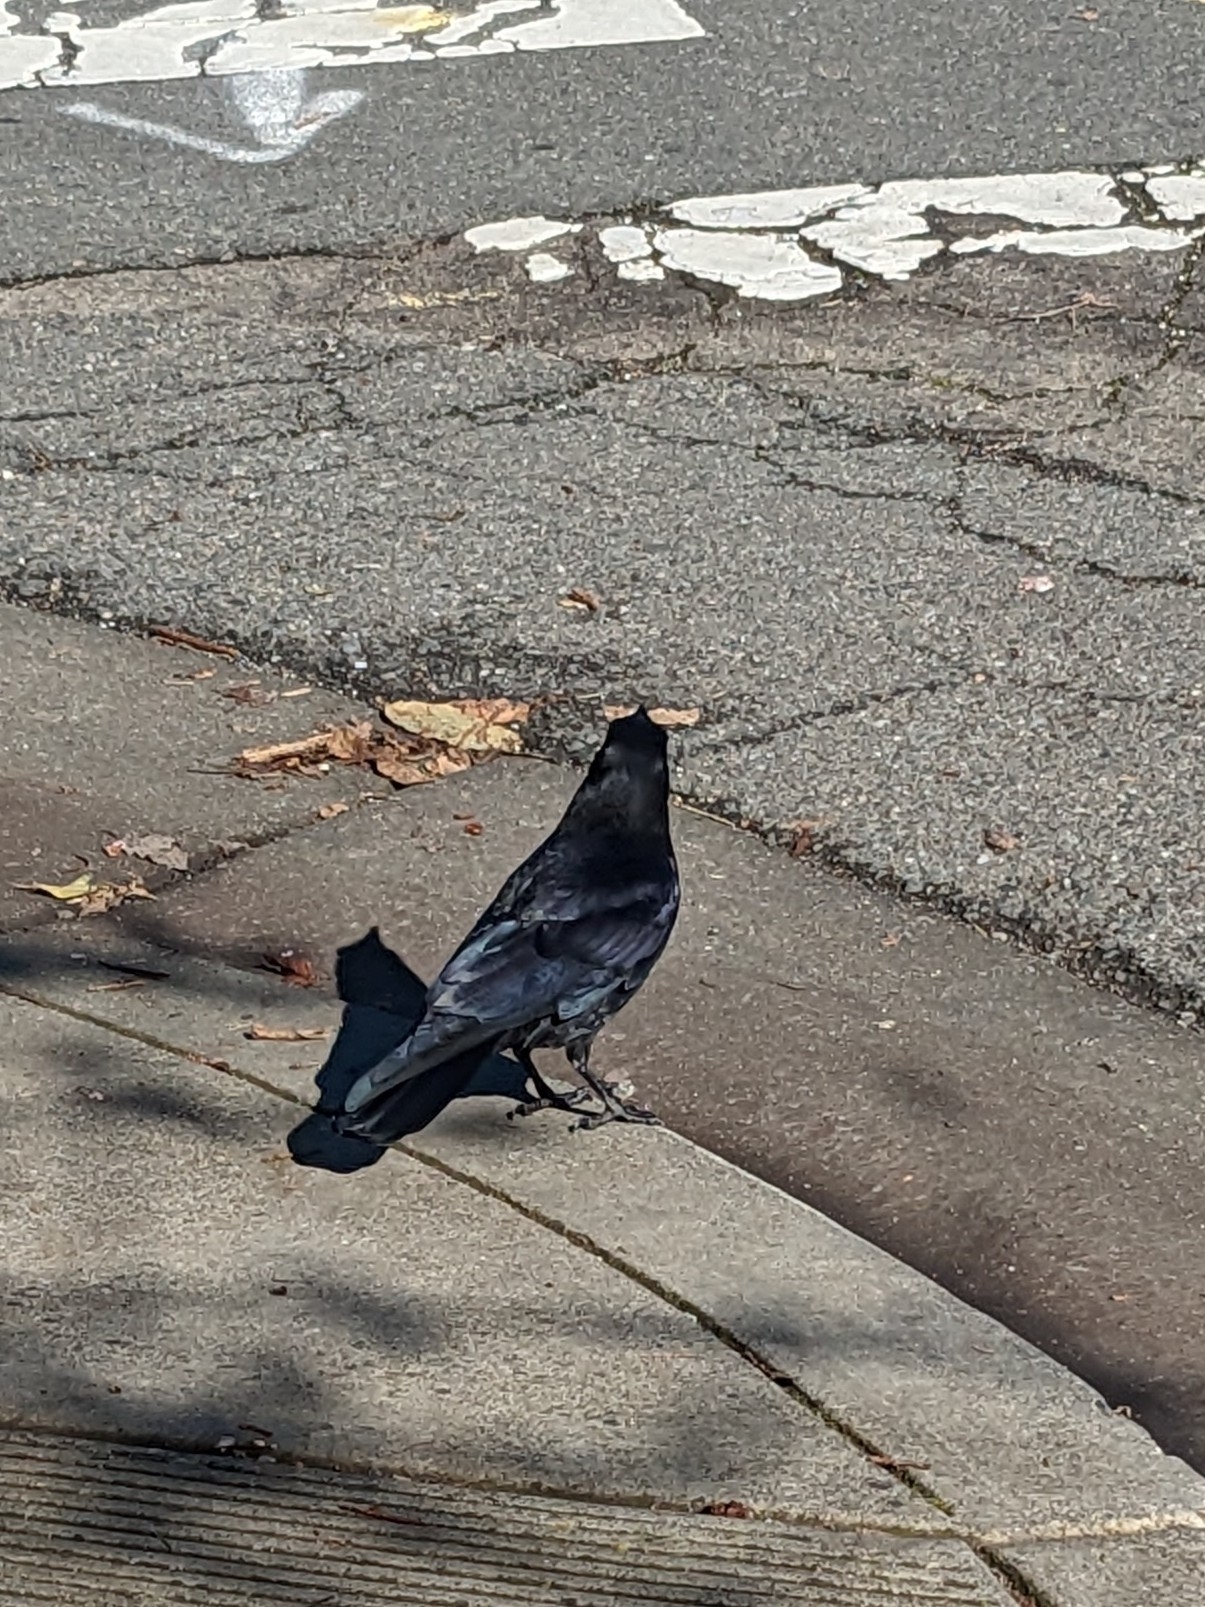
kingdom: Animalia
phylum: Chordata
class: Aves
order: Passeriformes
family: Corvidae
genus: Corvus
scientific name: Corvus brachyrhynchos
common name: American crow
